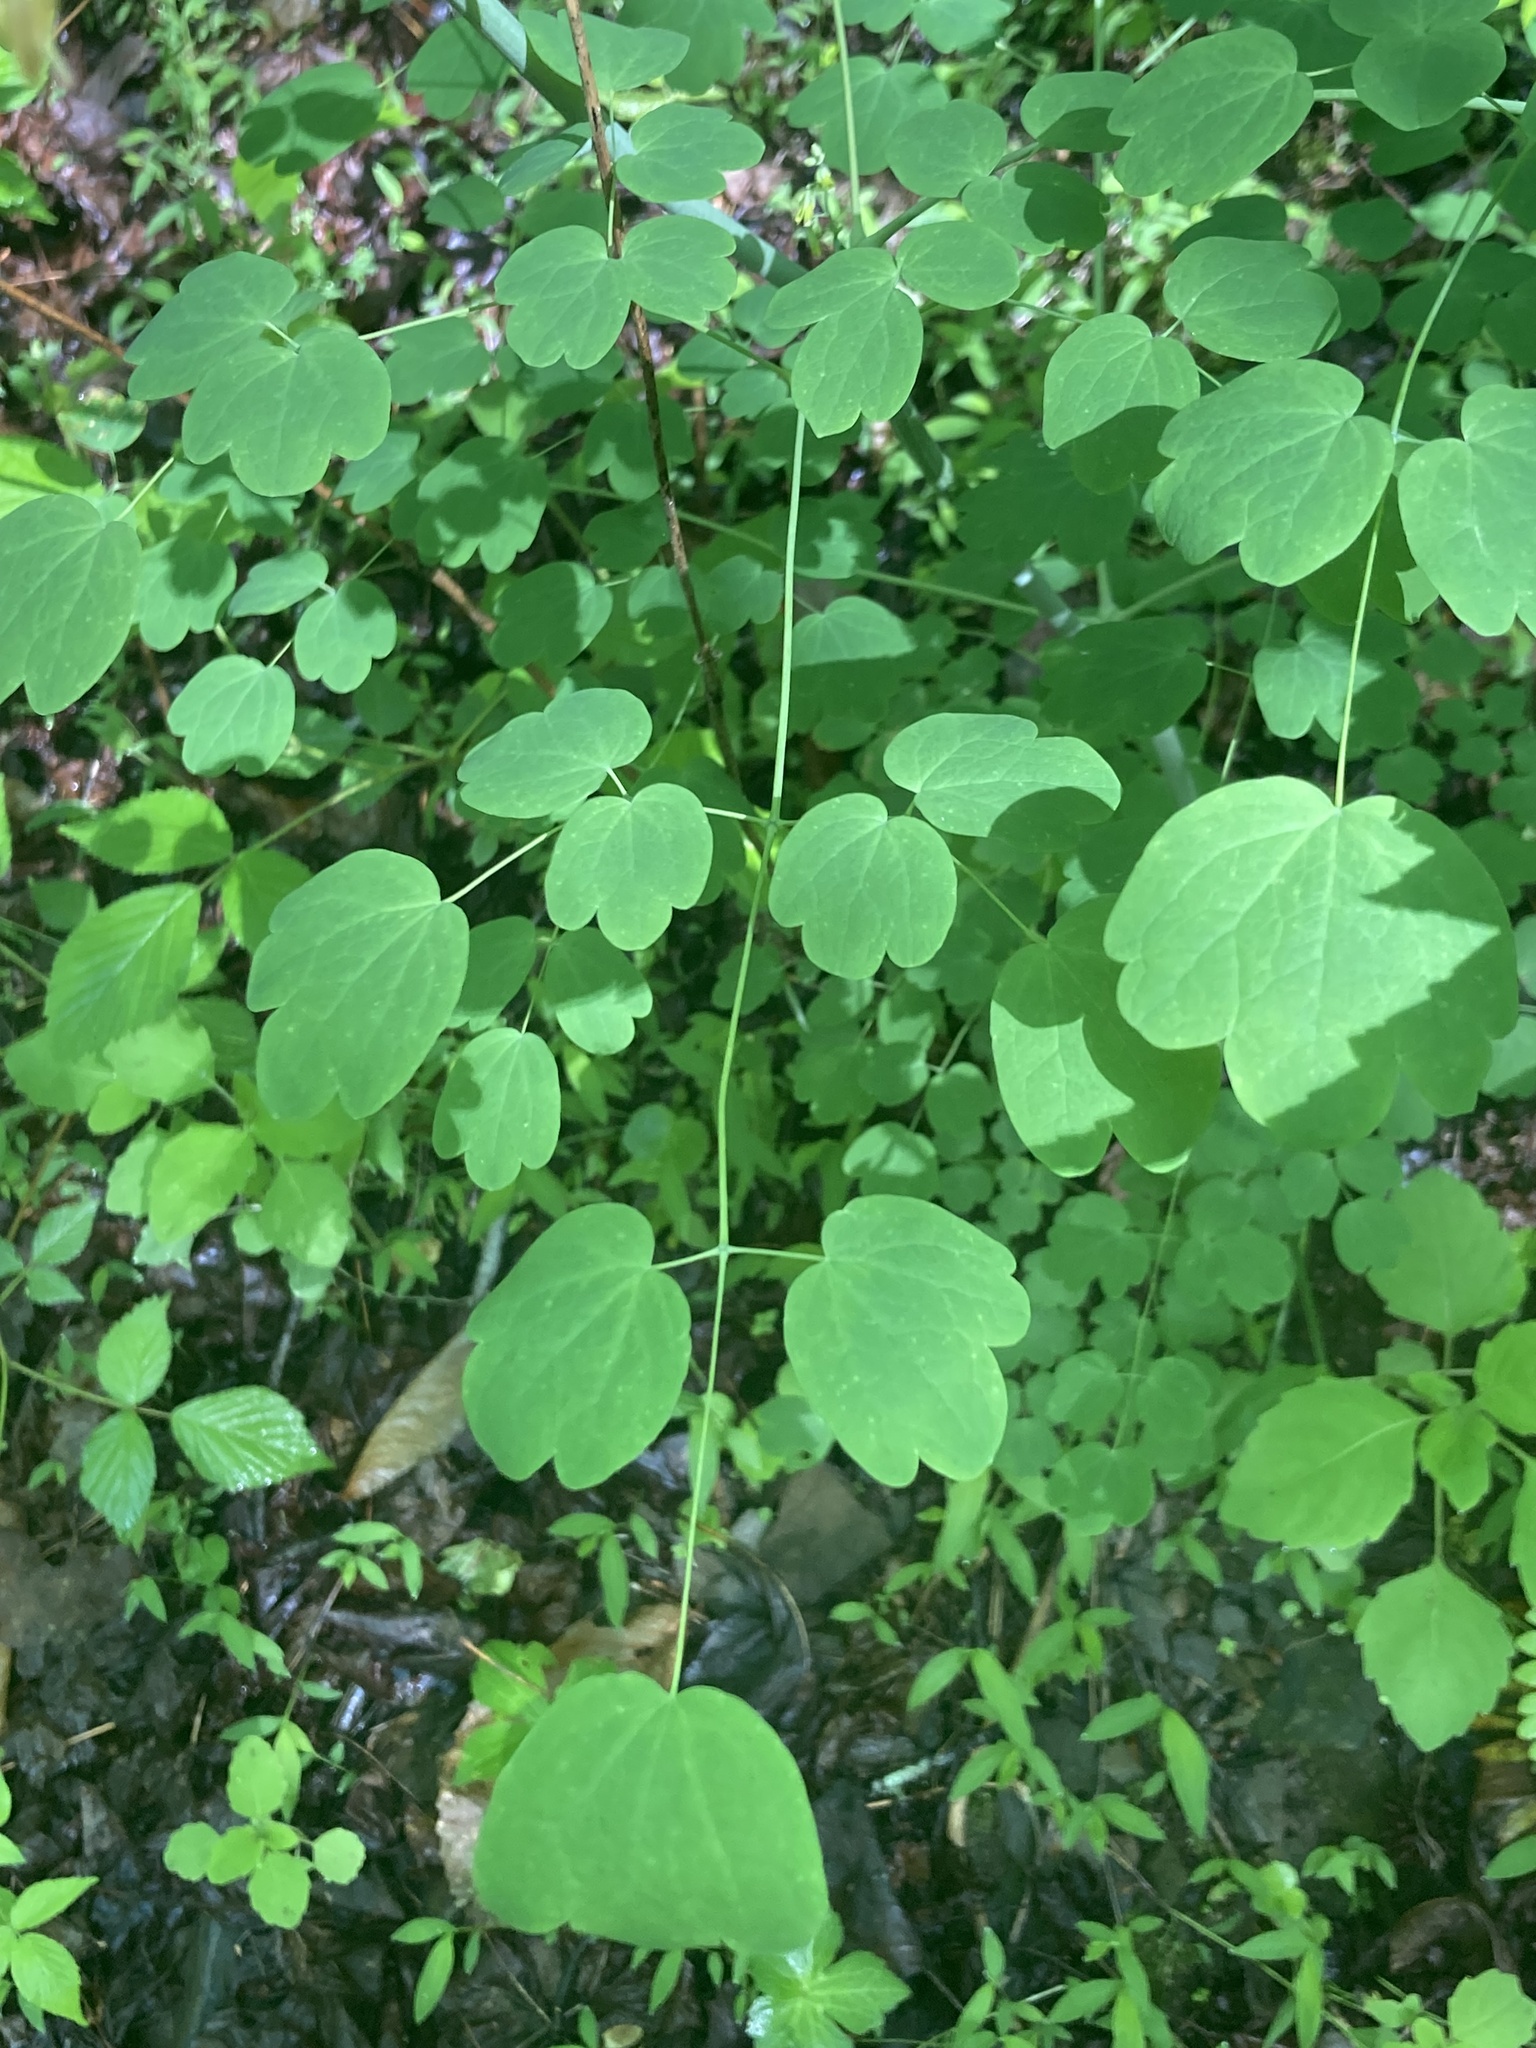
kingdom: Plantae
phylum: Tracheophyta
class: Magnoliopsida
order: Ranunculales
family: Ranunculaceae
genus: Thalictrum
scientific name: Thalictrum dioicum
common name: Early meadow-rue
